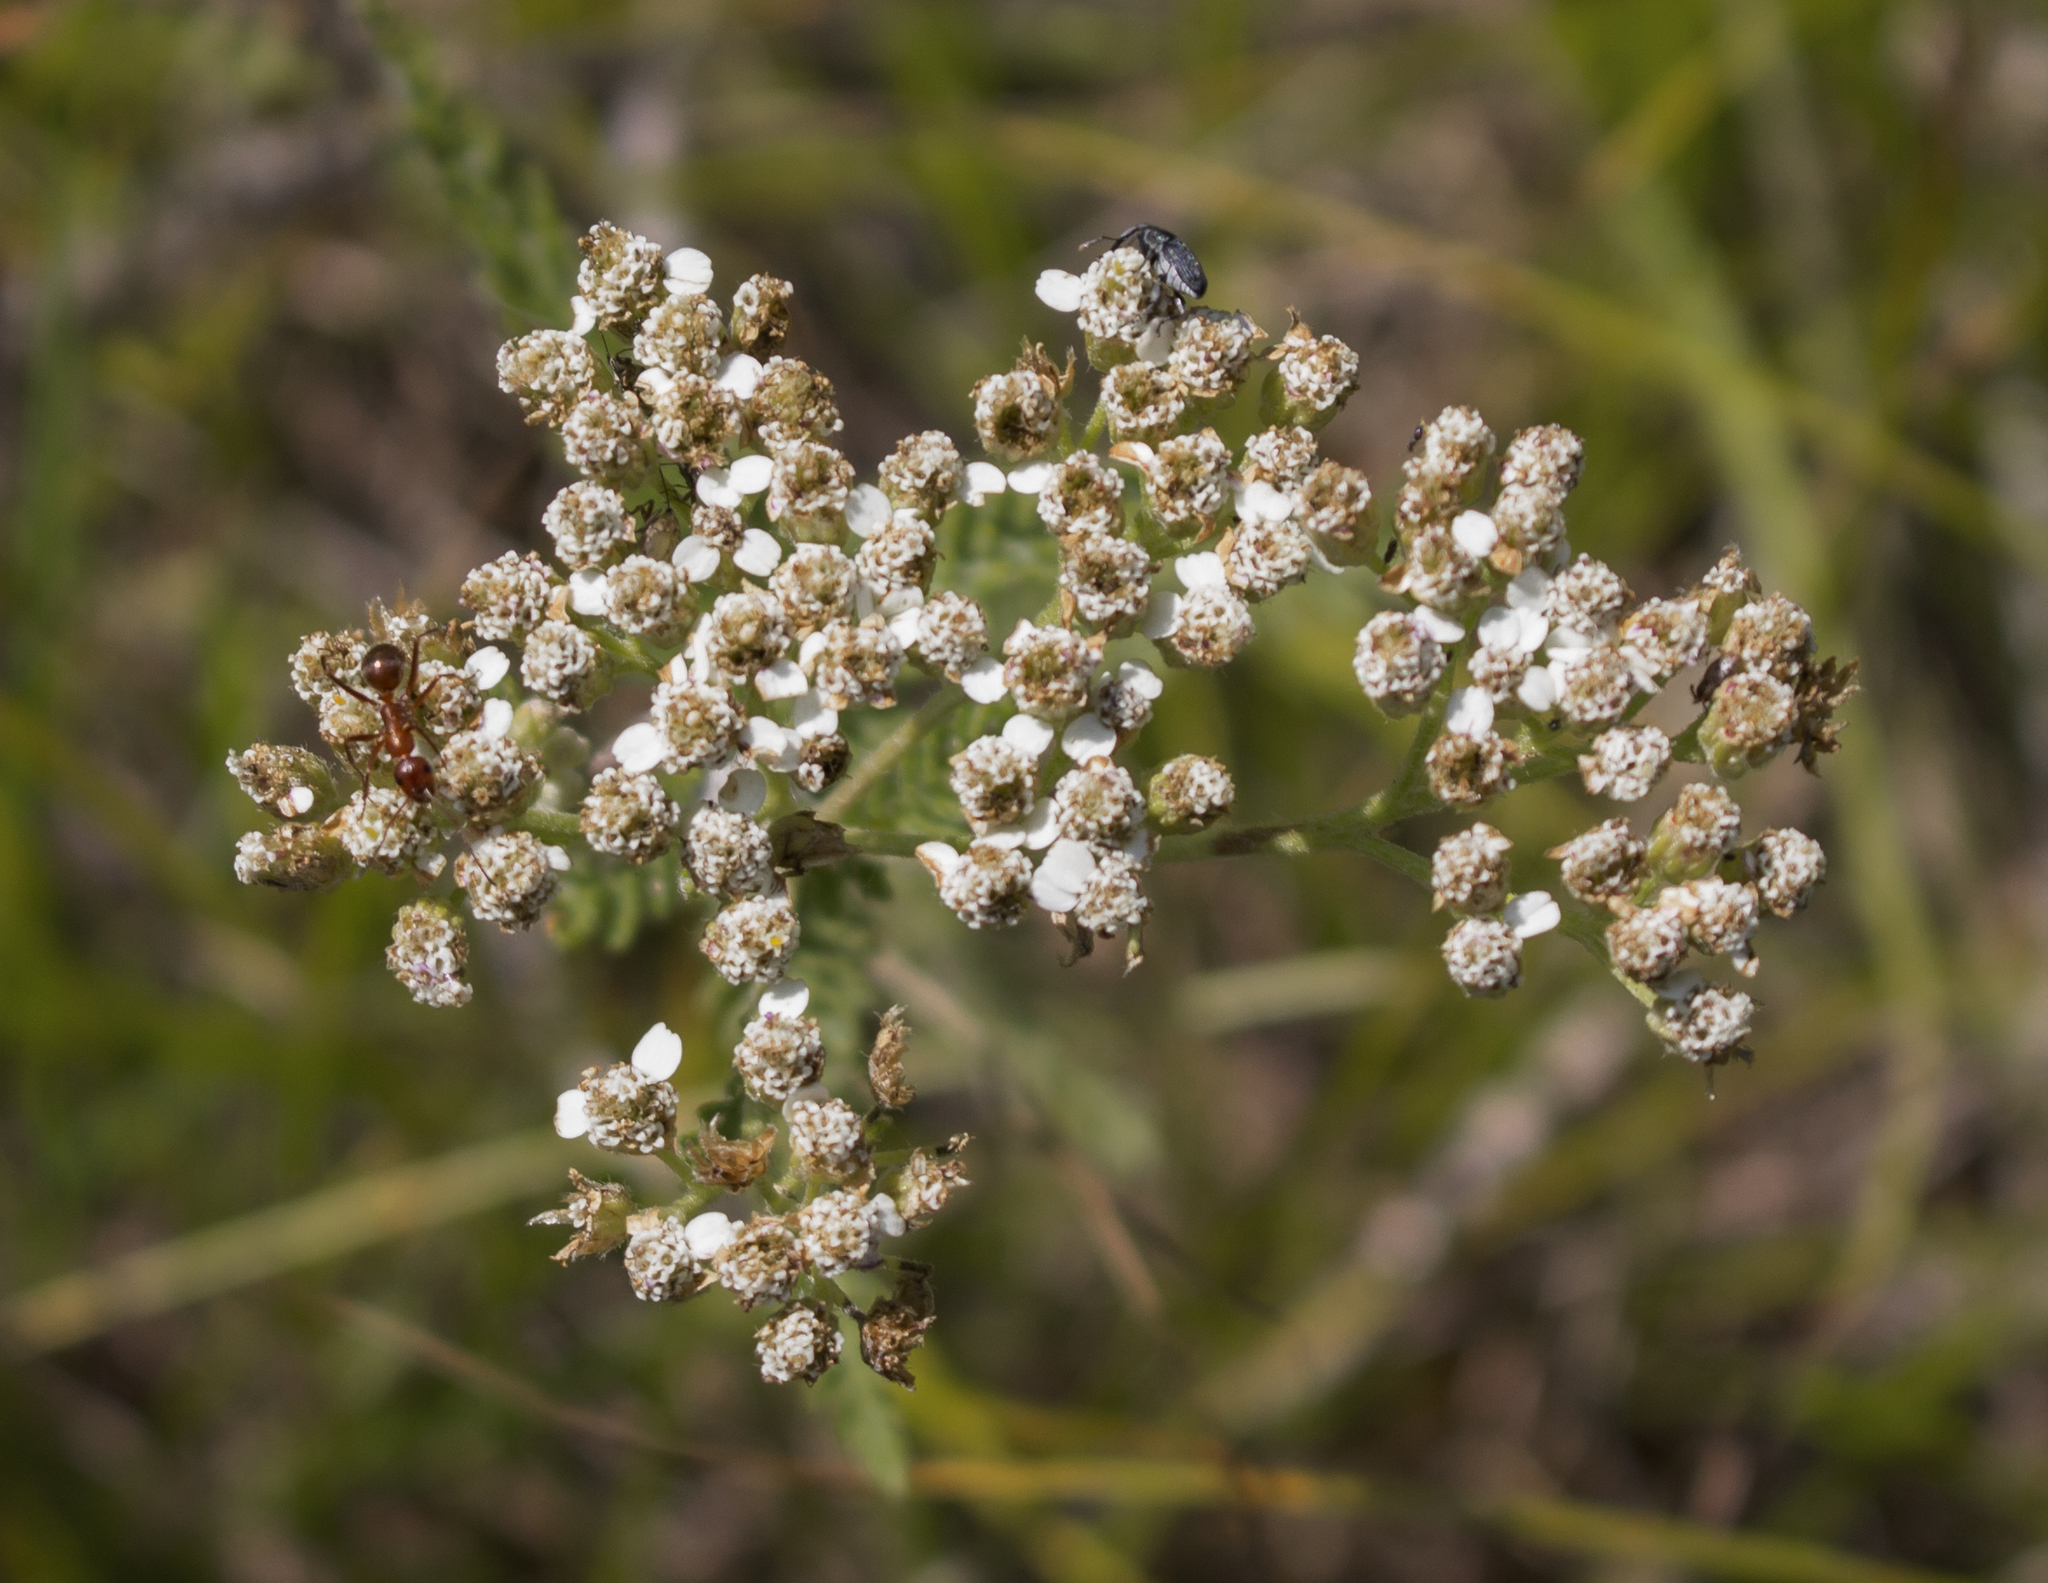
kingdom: Plantae
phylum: Tracheophyta
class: Magnoliopsida
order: Asterales
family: Asteraceae
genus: Achillea
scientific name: Achillea millefolium
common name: Yarrow
